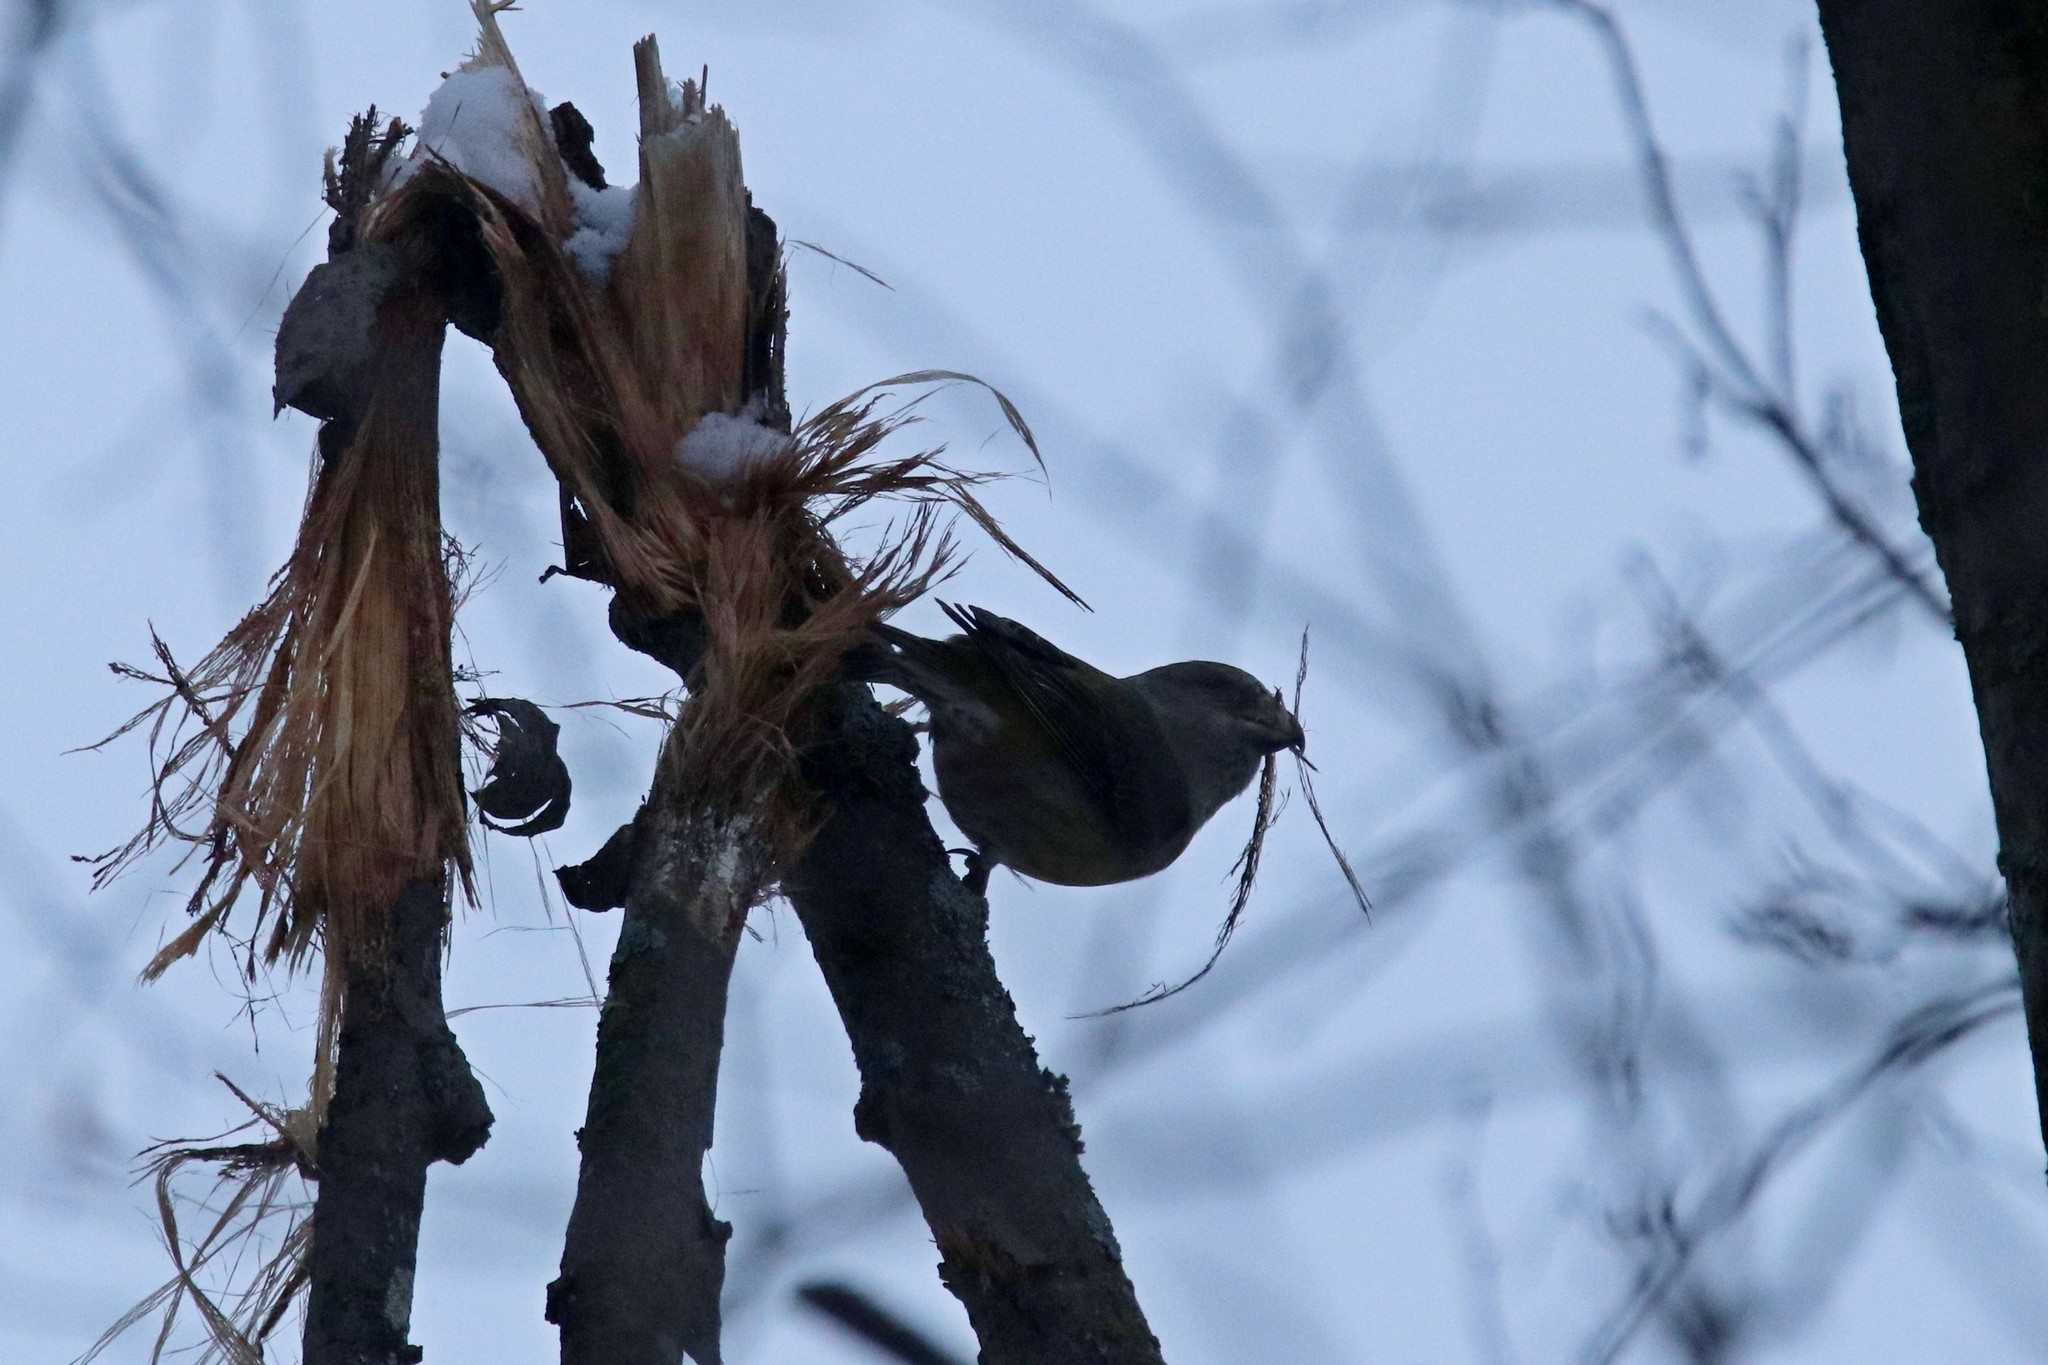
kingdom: Animalia
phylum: Chordata
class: Aves
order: Passeriformes
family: Fringillidae
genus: Loxia
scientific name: Loxia curvirostra
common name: Red crossbill
